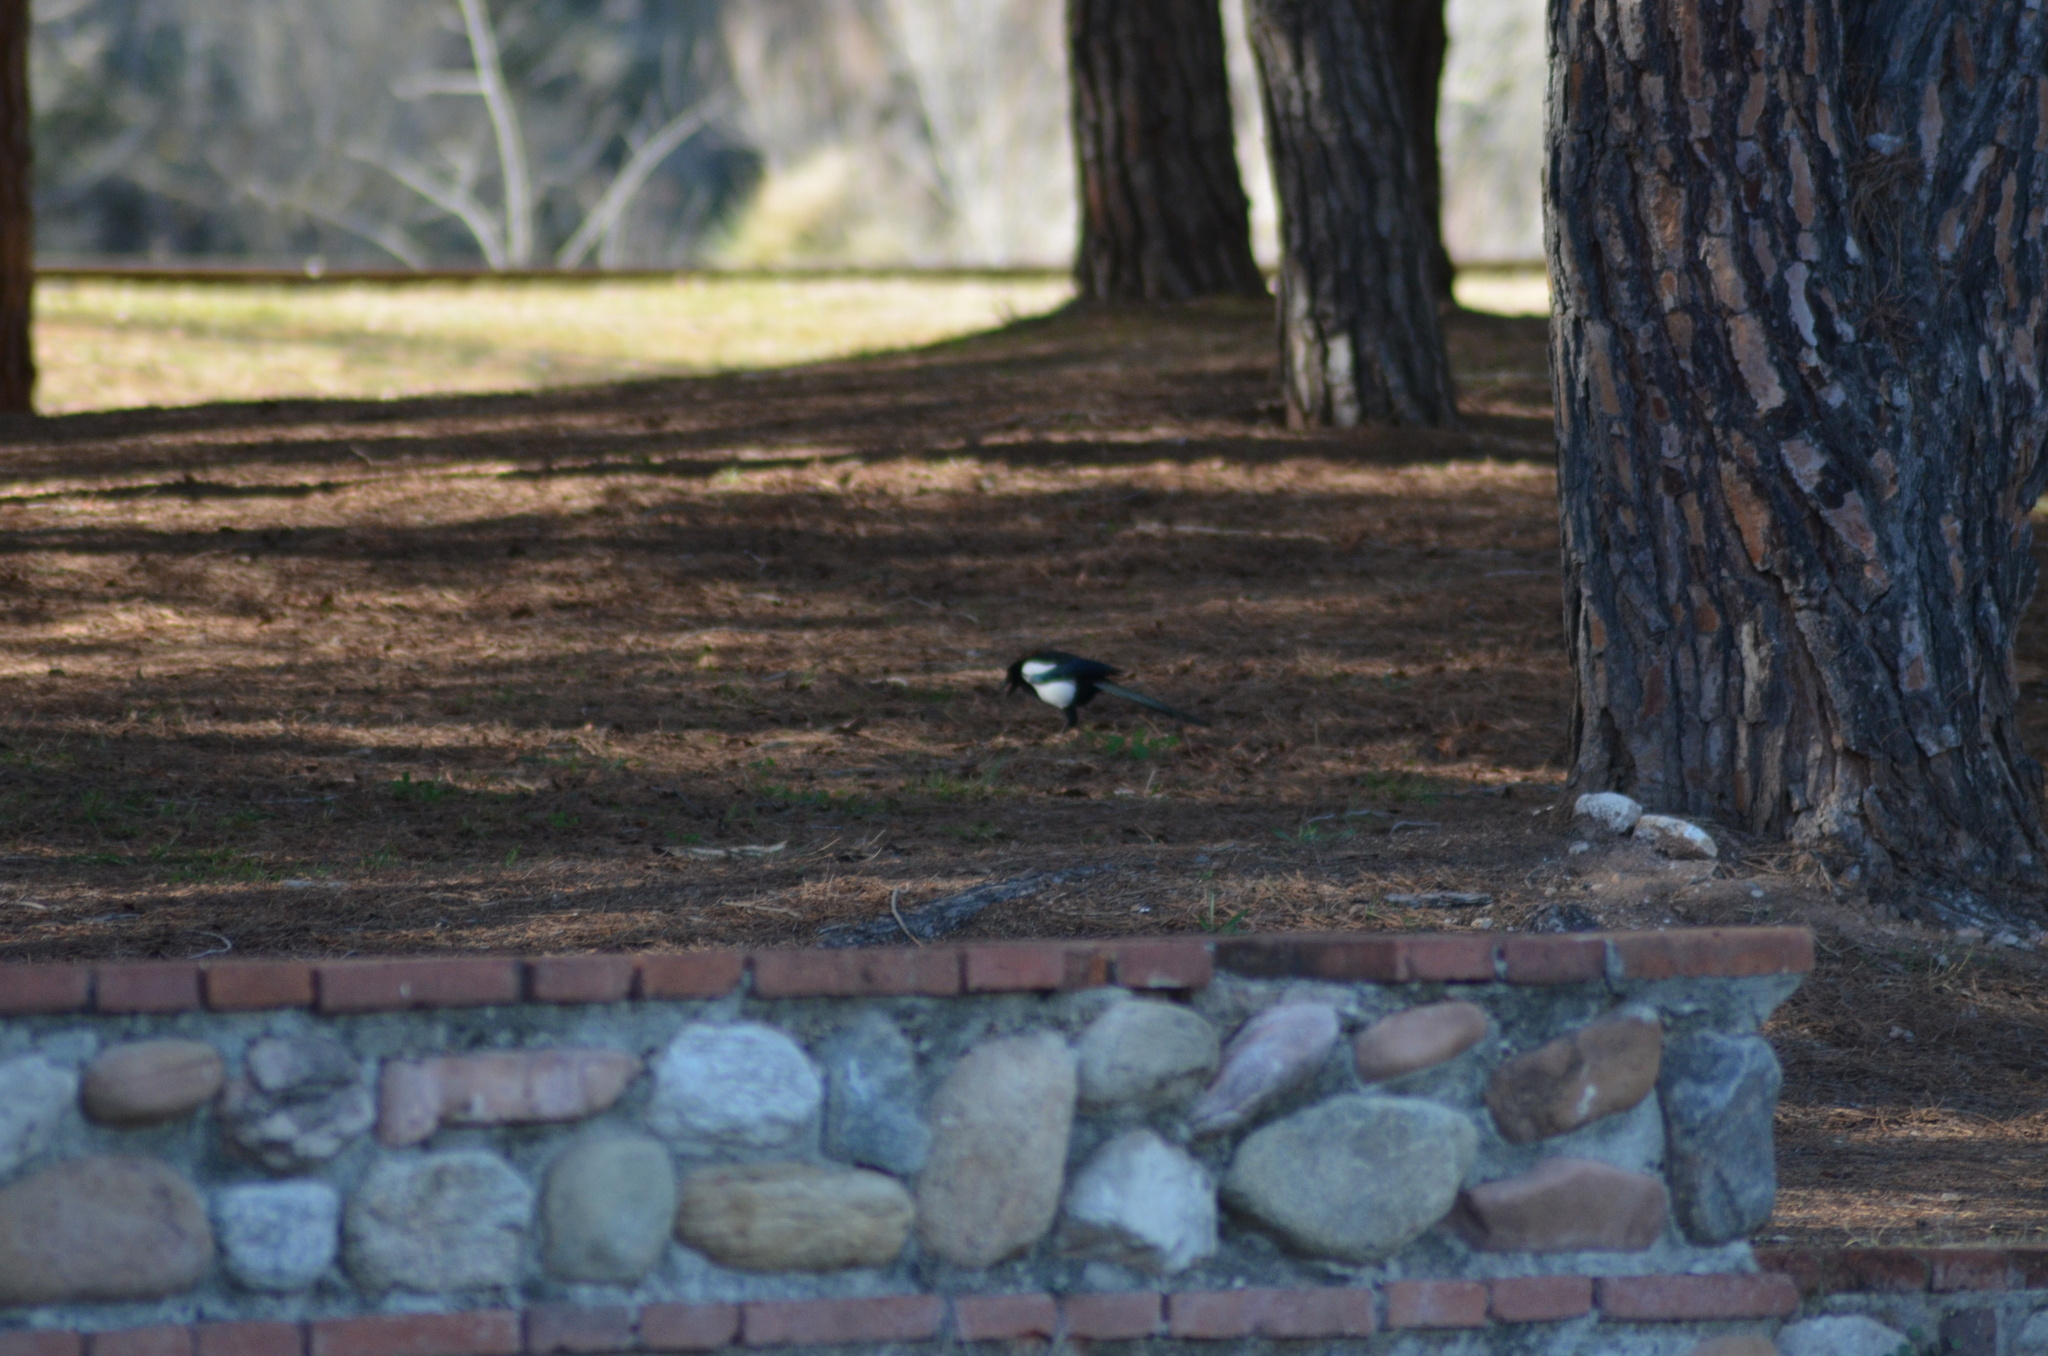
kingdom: Animalia
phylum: Chordata
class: Aves
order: Passeriformes
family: Corvidae
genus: Pica
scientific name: Pica pica
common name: Eurasian magpie
